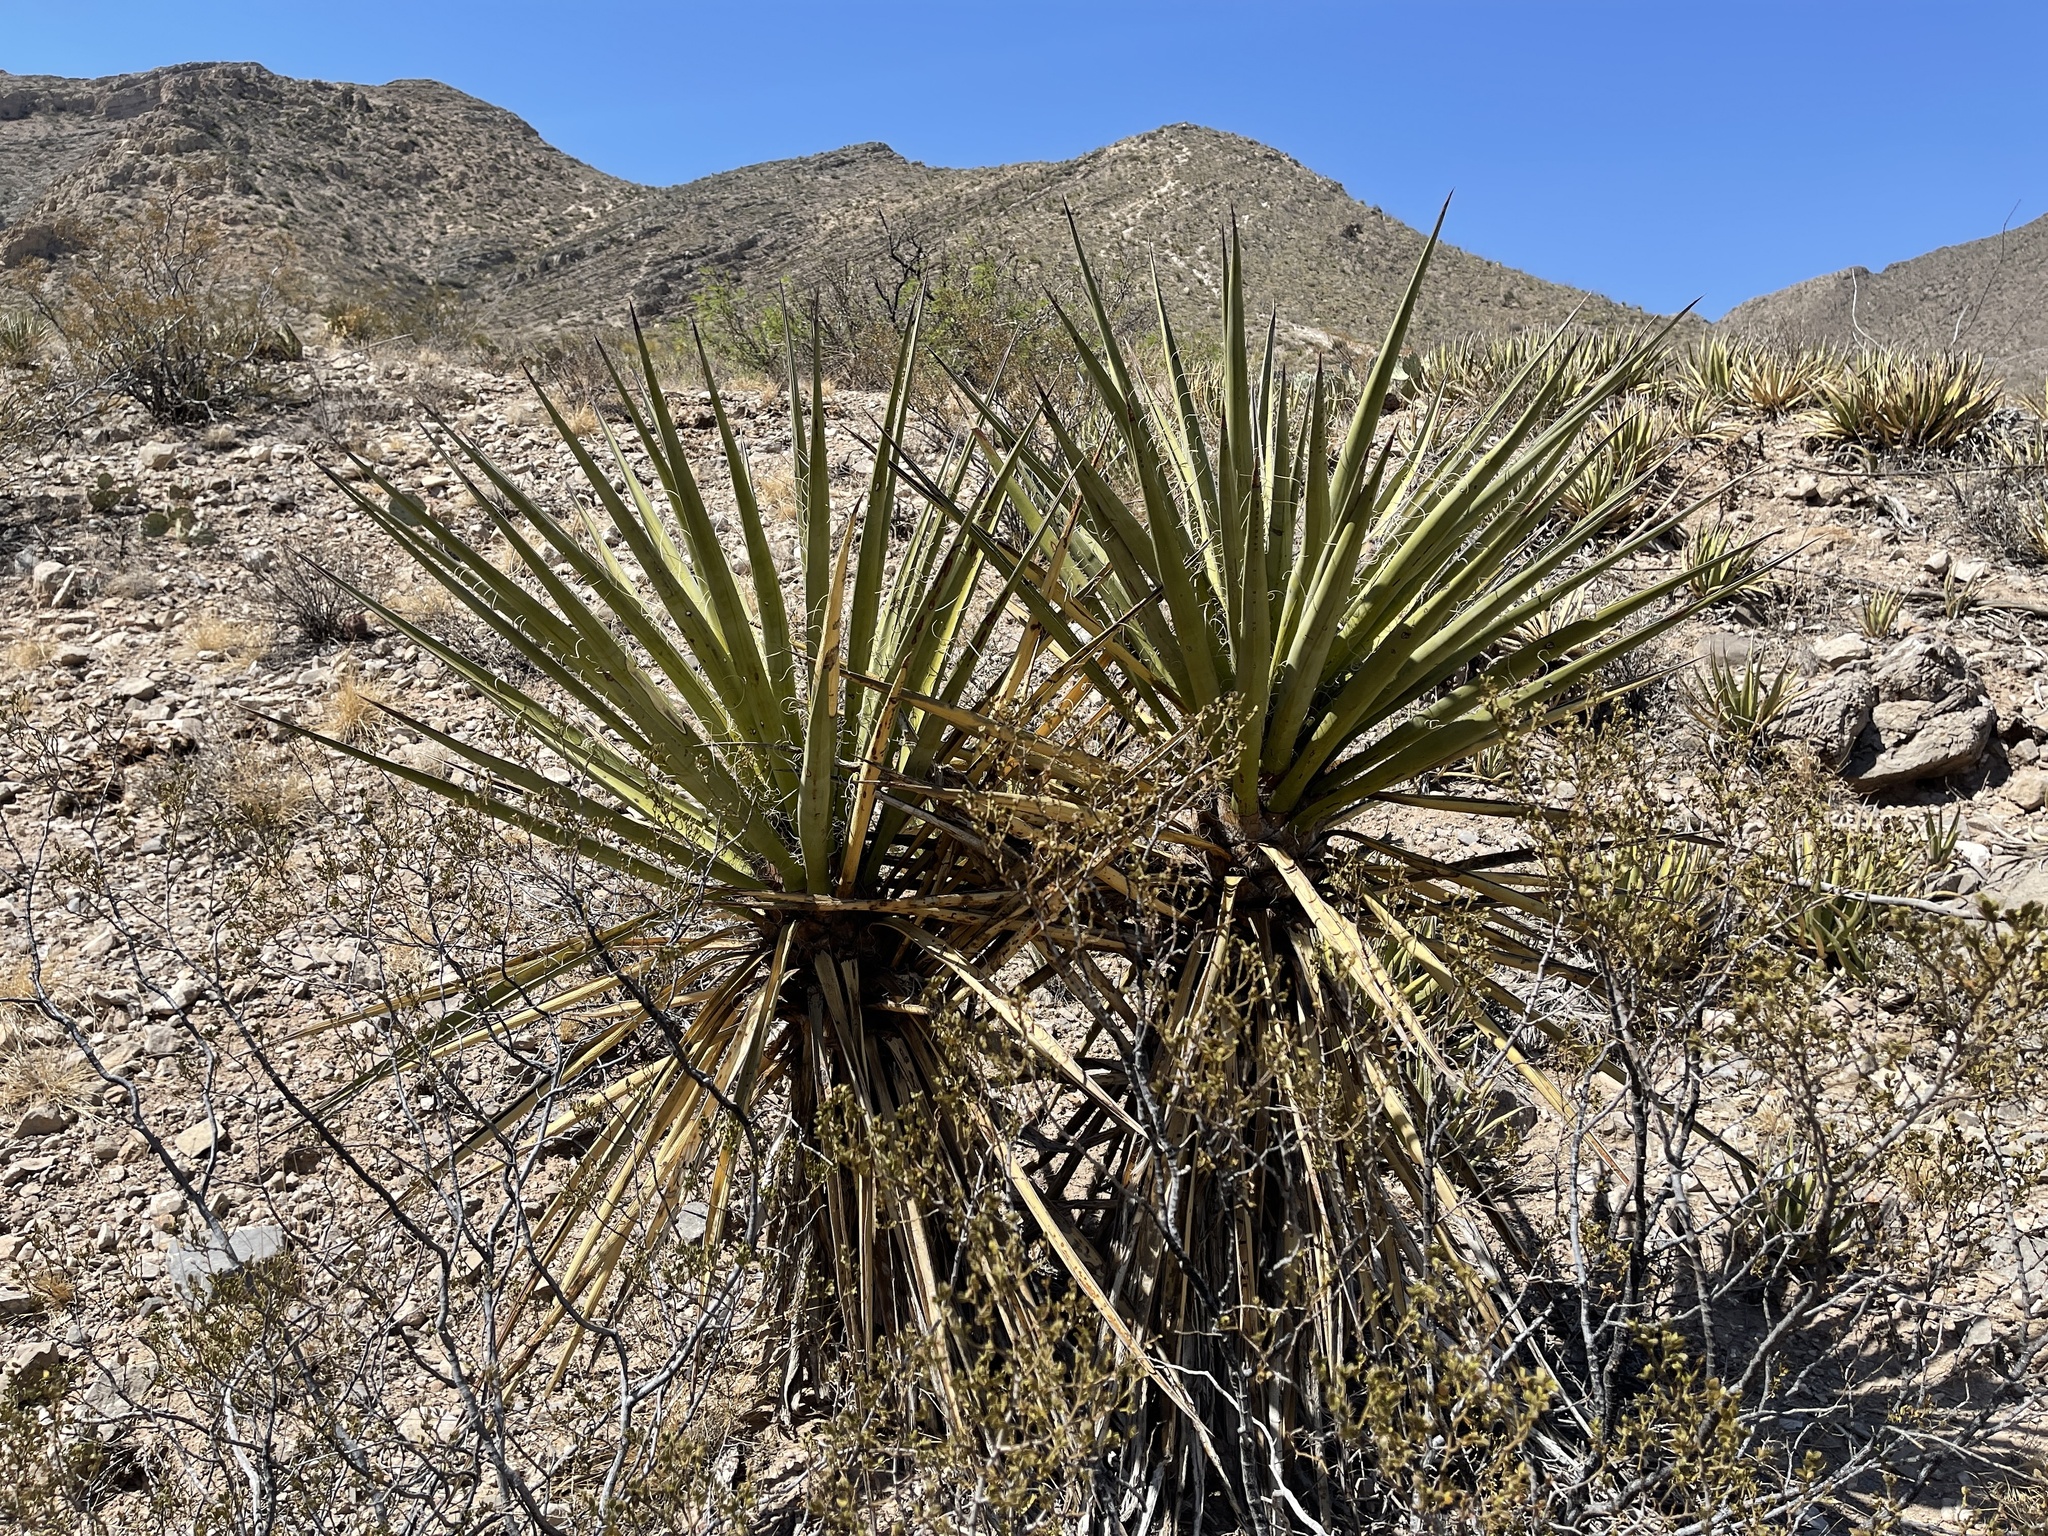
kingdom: Plantae
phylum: Tracheophyta
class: Liliopsida
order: Asparagales
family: Asparagaceae
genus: Yucca
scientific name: Yucca treculiana
